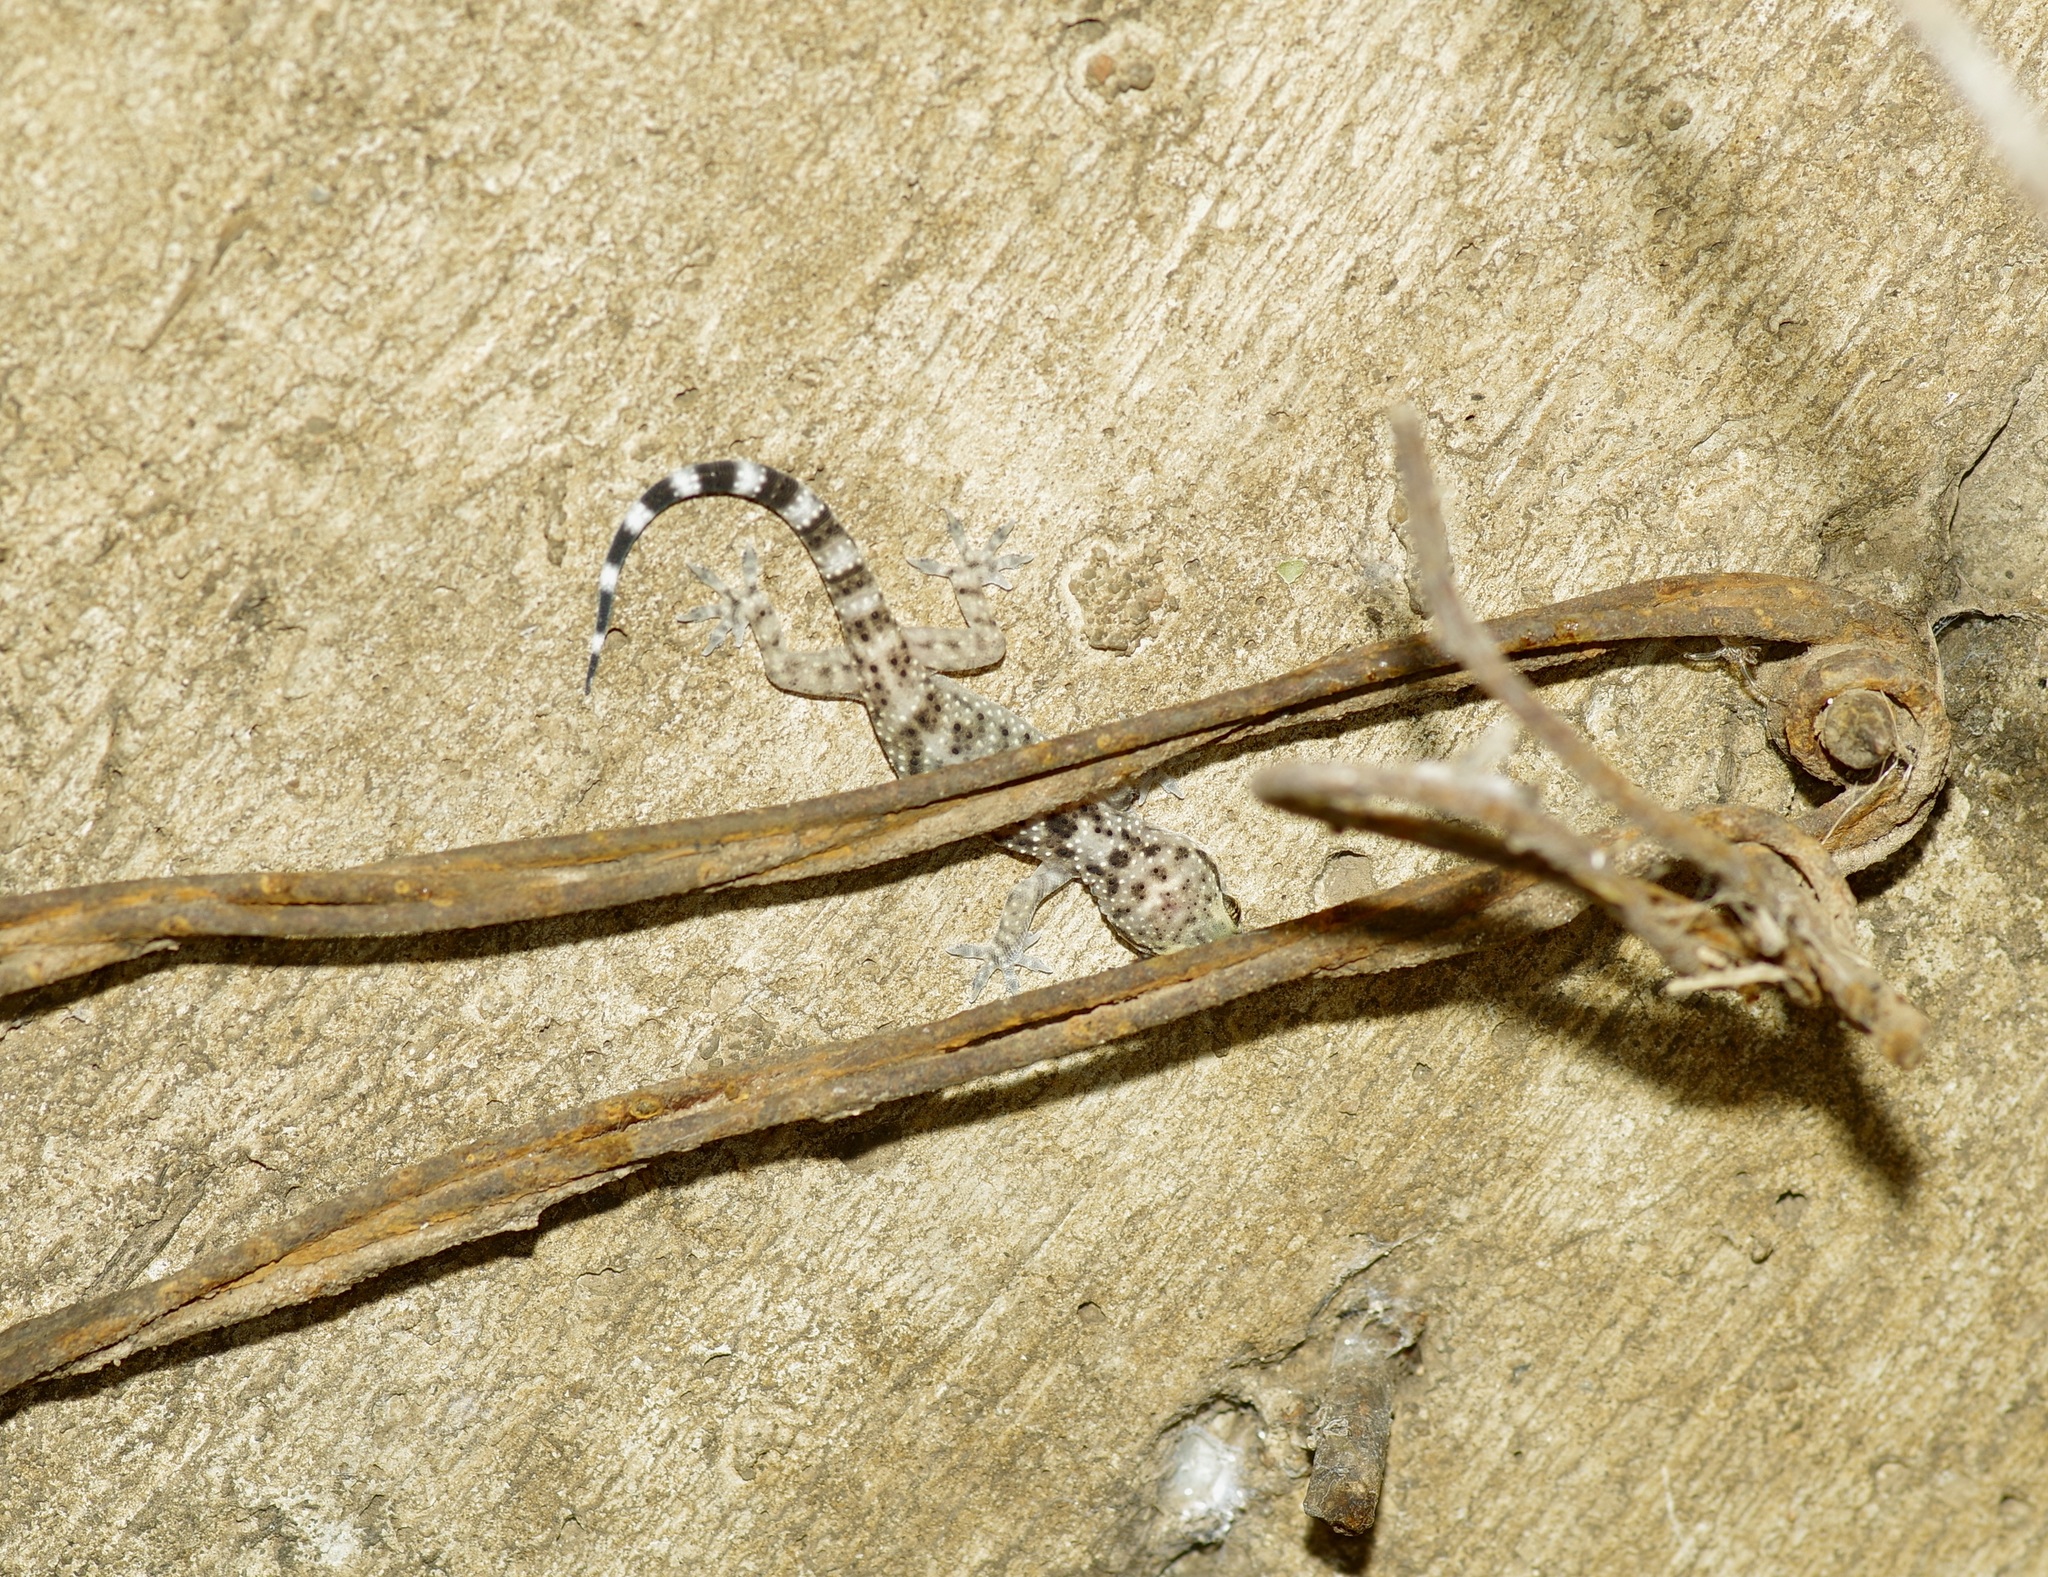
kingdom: Animalia
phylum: Chordata
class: Squamata
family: Gekkonidae
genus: Hemidactylus
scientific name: Hemidactylus turcicus
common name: Turkish gecko
